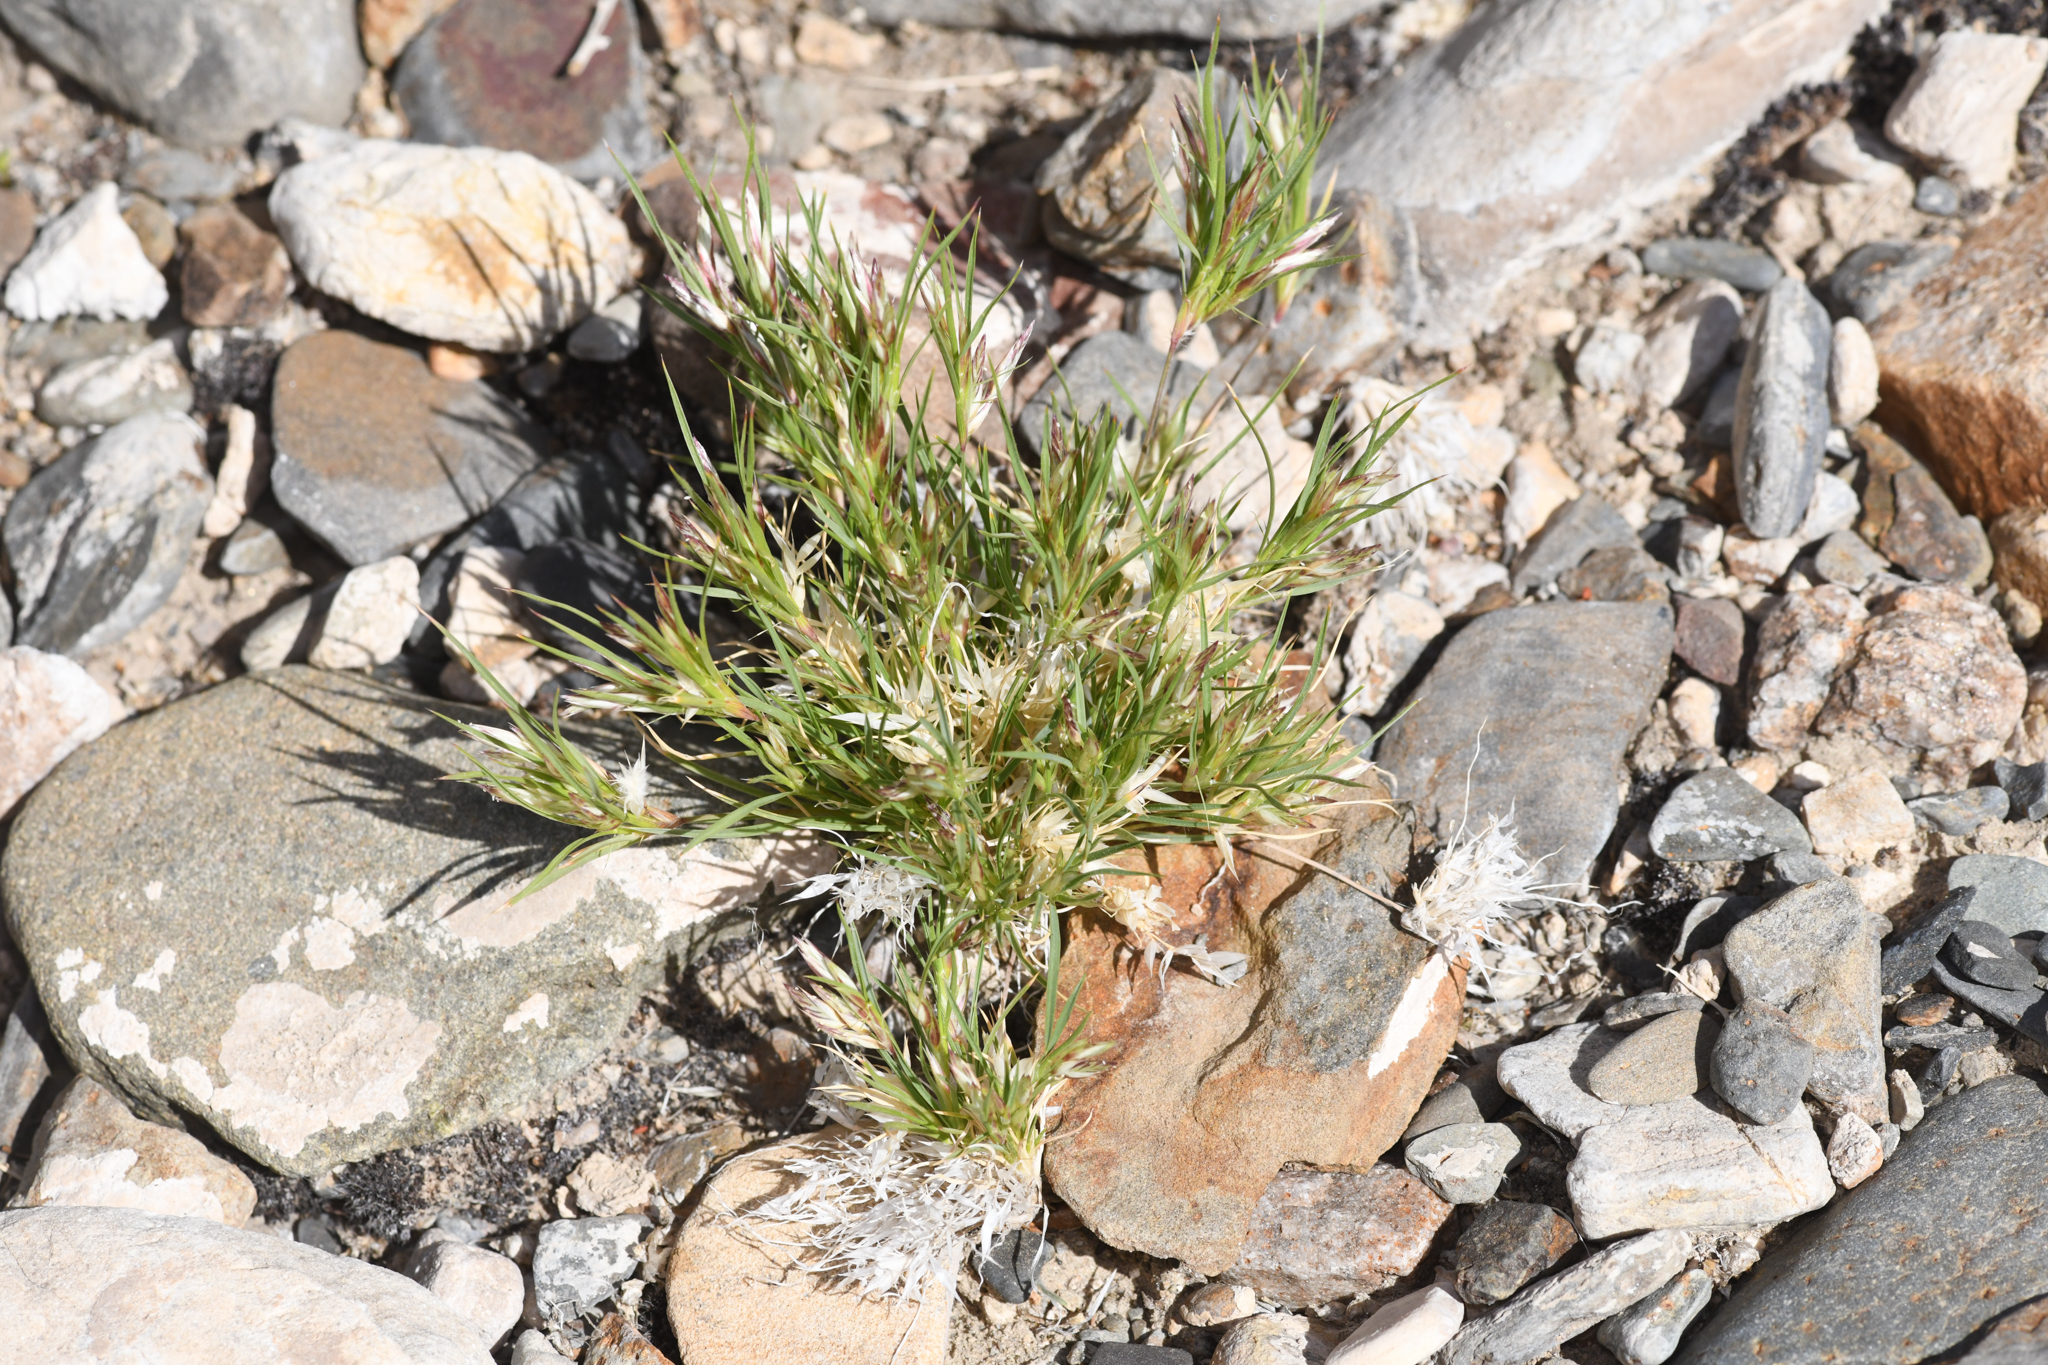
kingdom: Plantae
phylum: Tracheophyta
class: Liliopsida
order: Poales
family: Poaceae
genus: Dasyochloa
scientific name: Dasyochloa pulchella
